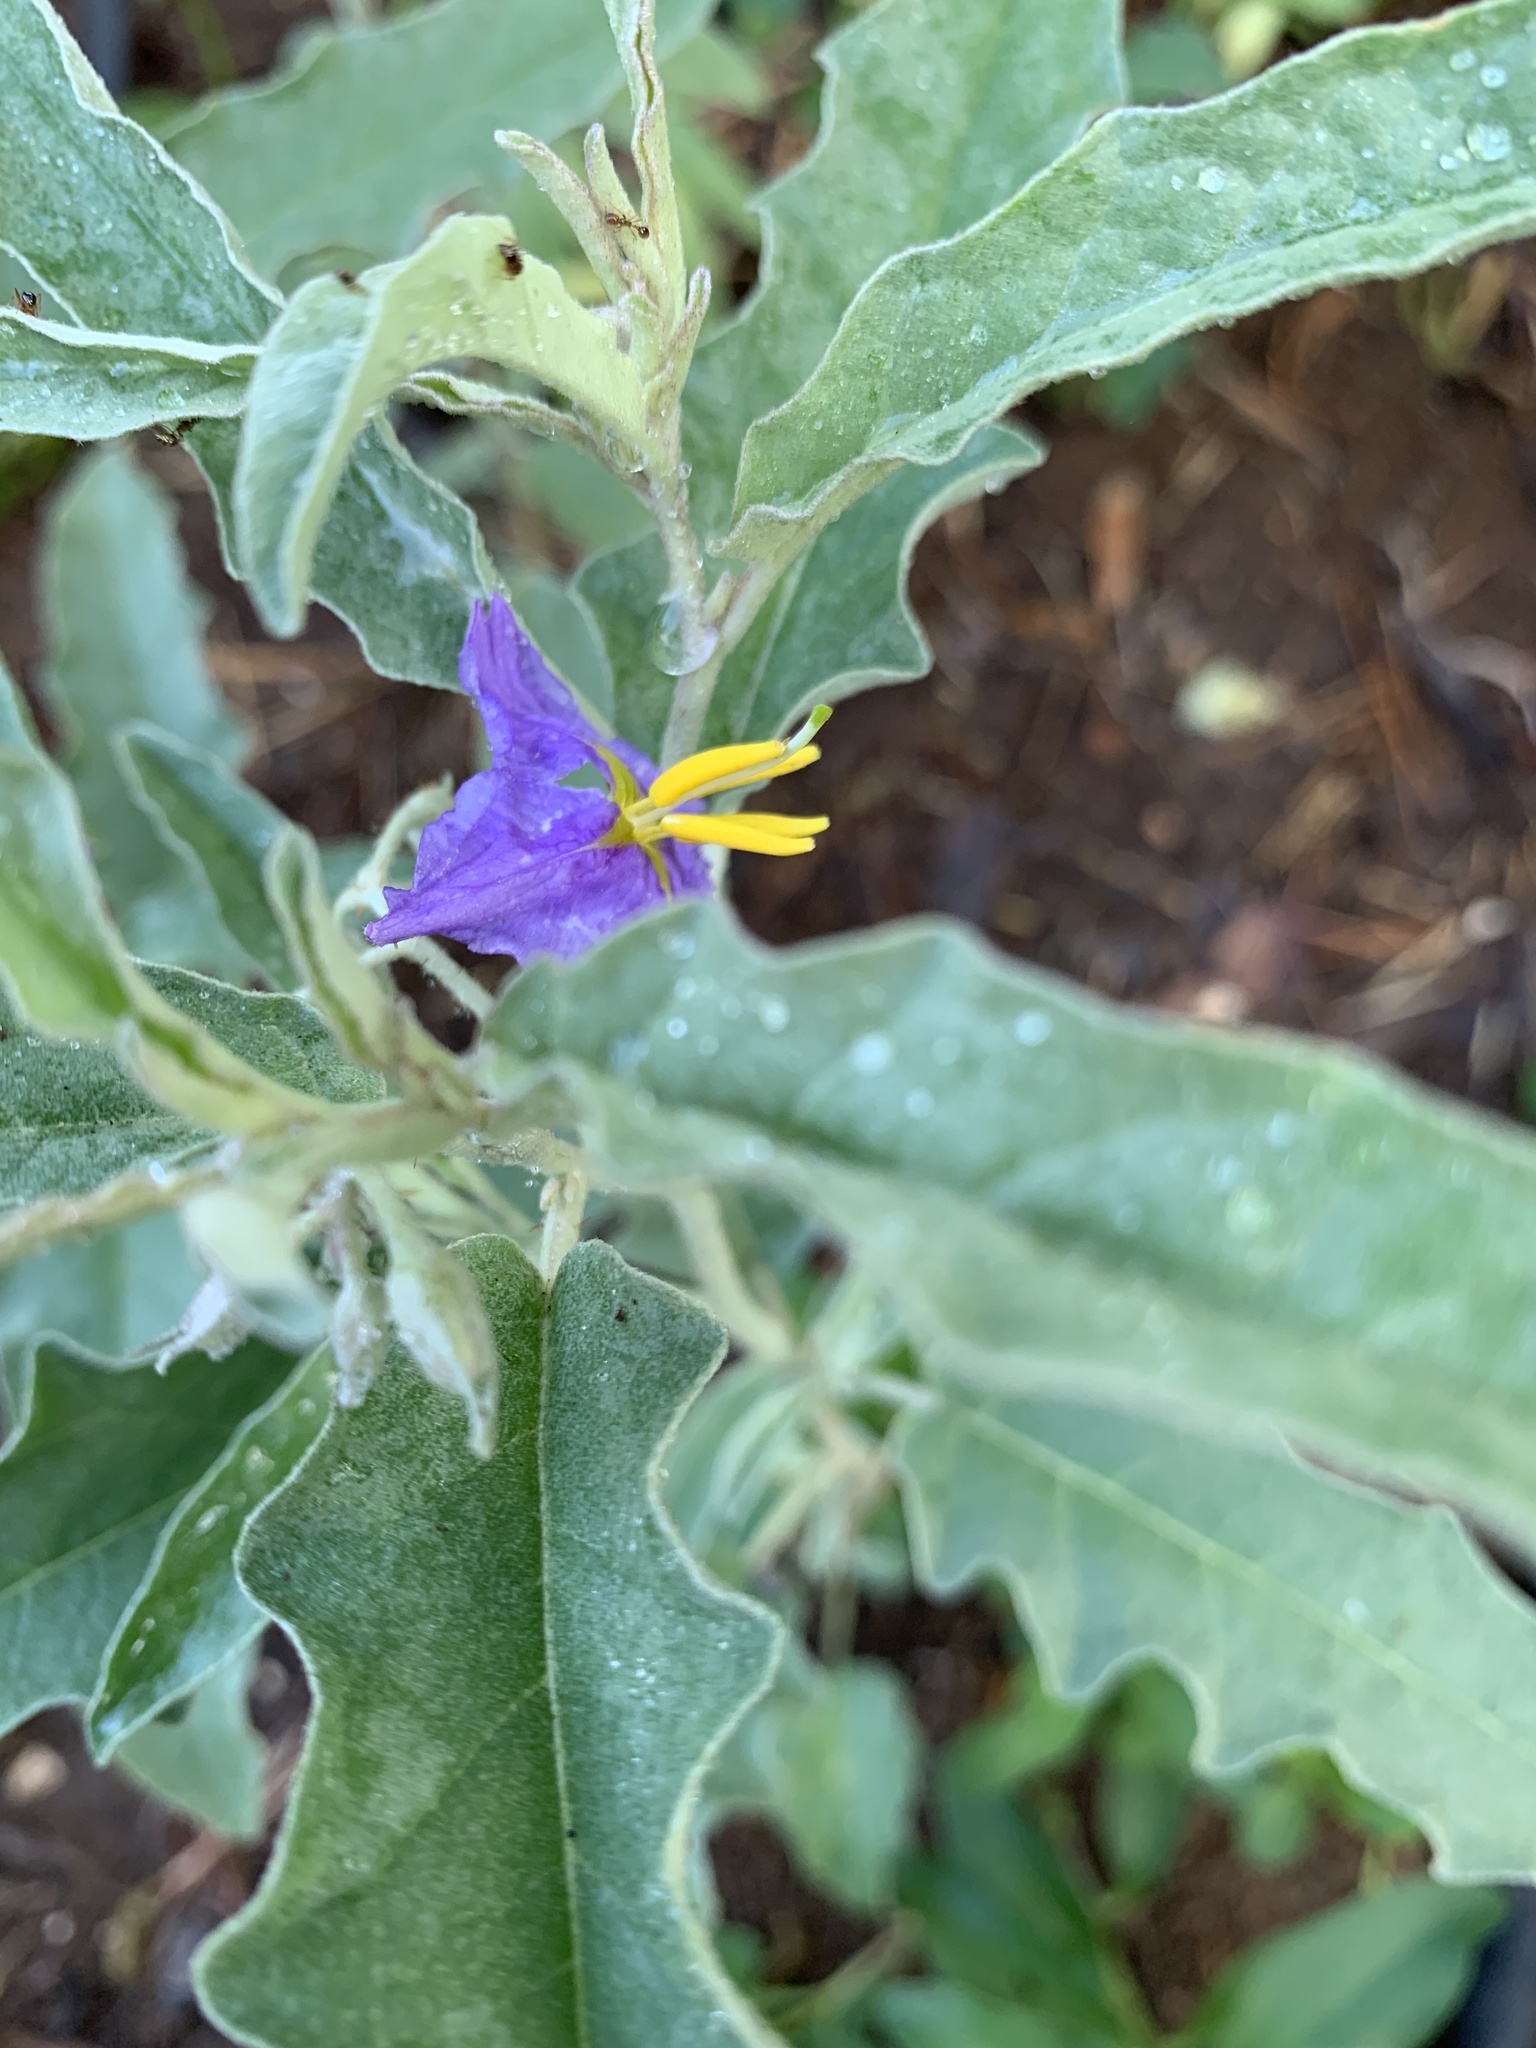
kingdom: Plantae
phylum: Tracheophyta
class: Magnoliopsida
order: Solanales
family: Solanaceae
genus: Solanum
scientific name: Solanum elaeagnifolium
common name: Silverleaf nightshade
